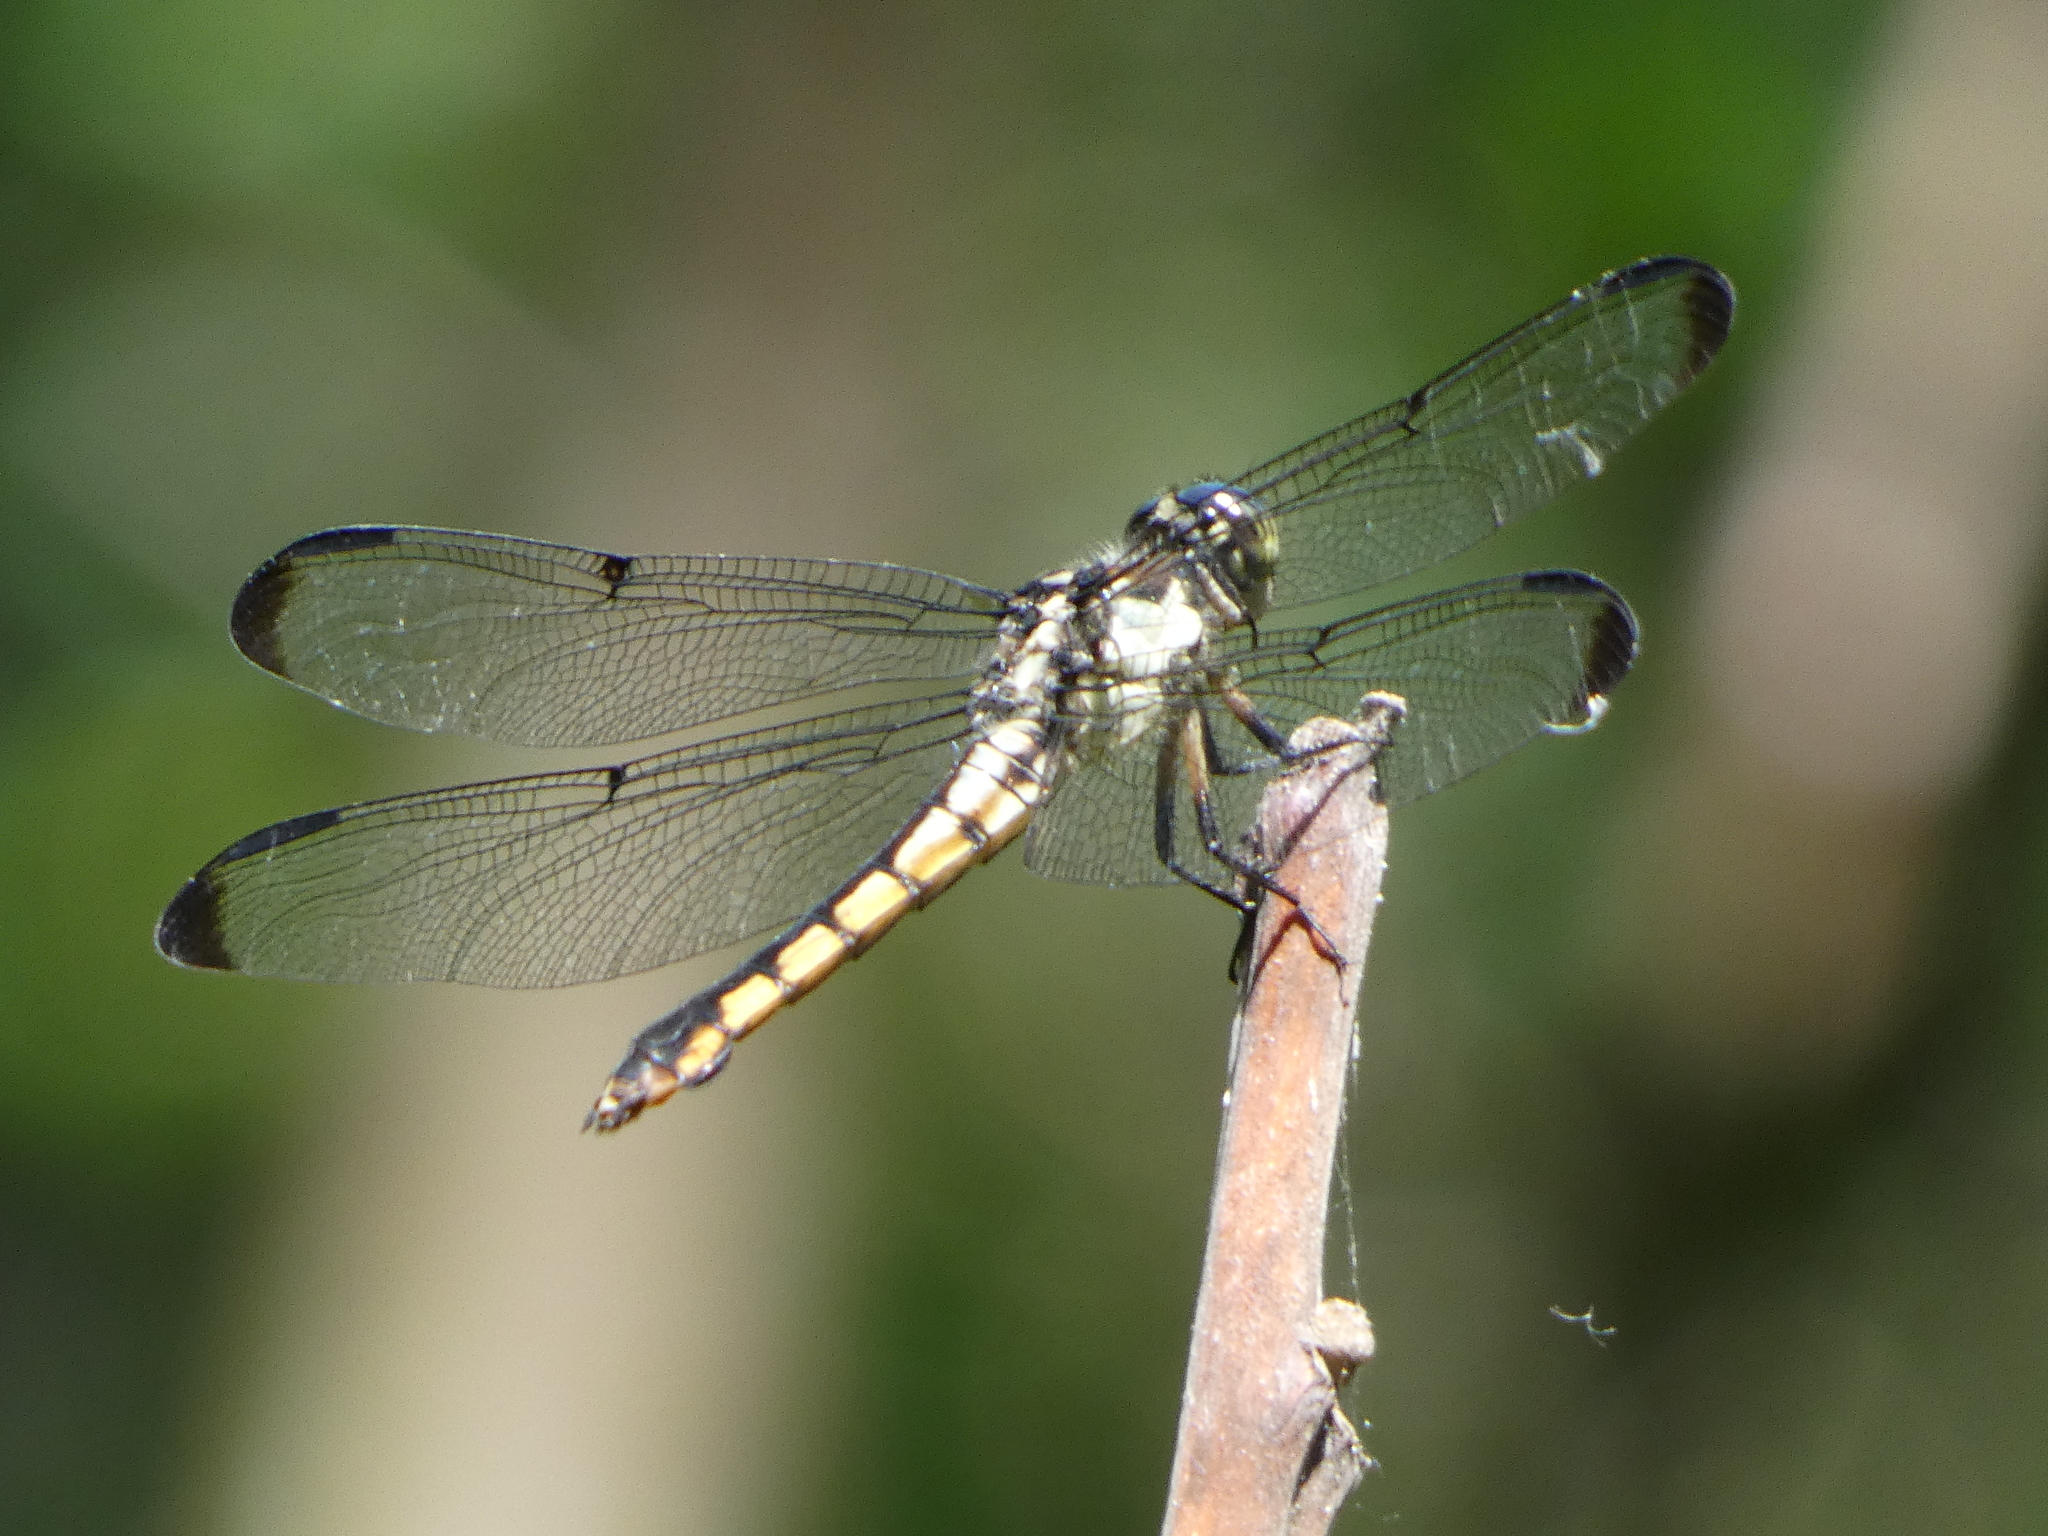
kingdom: Animalia
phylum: Arthropoda
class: Insecta
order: Odonata
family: Libellulidae
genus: Libellula
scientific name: Libellula vibrans
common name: Great blue skimmer
